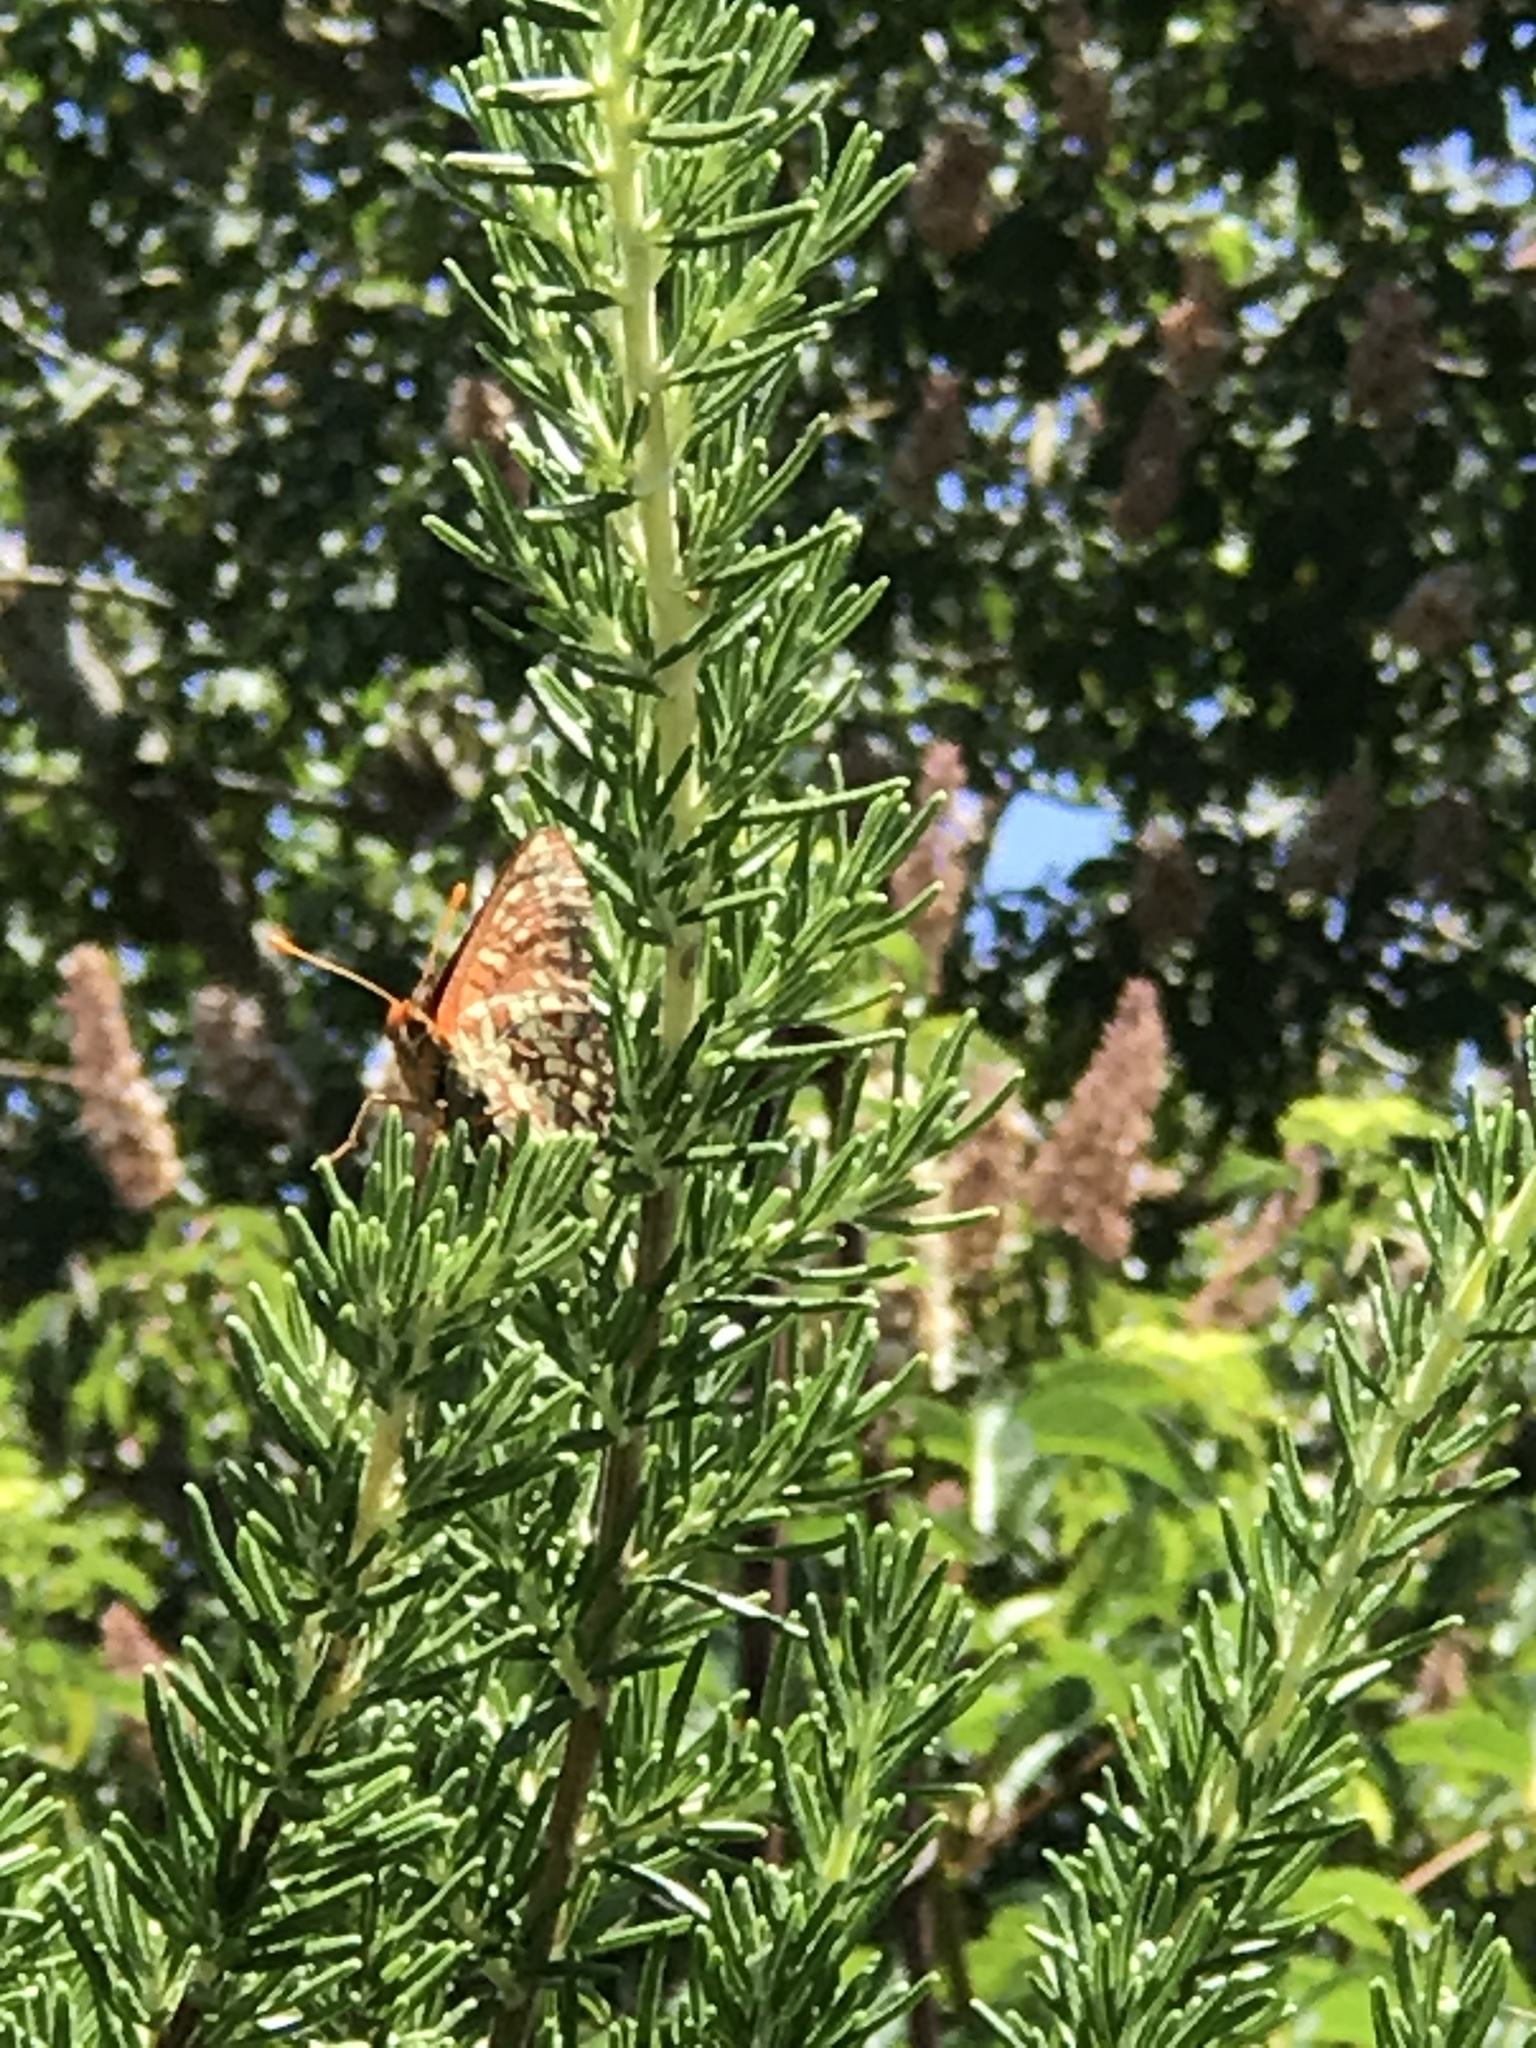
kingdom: Animalia
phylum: Arthropoda
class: Insecta
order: Lepidoptera
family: Nymphalidae
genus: Occidryas
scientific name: Occidryas chalcedona
